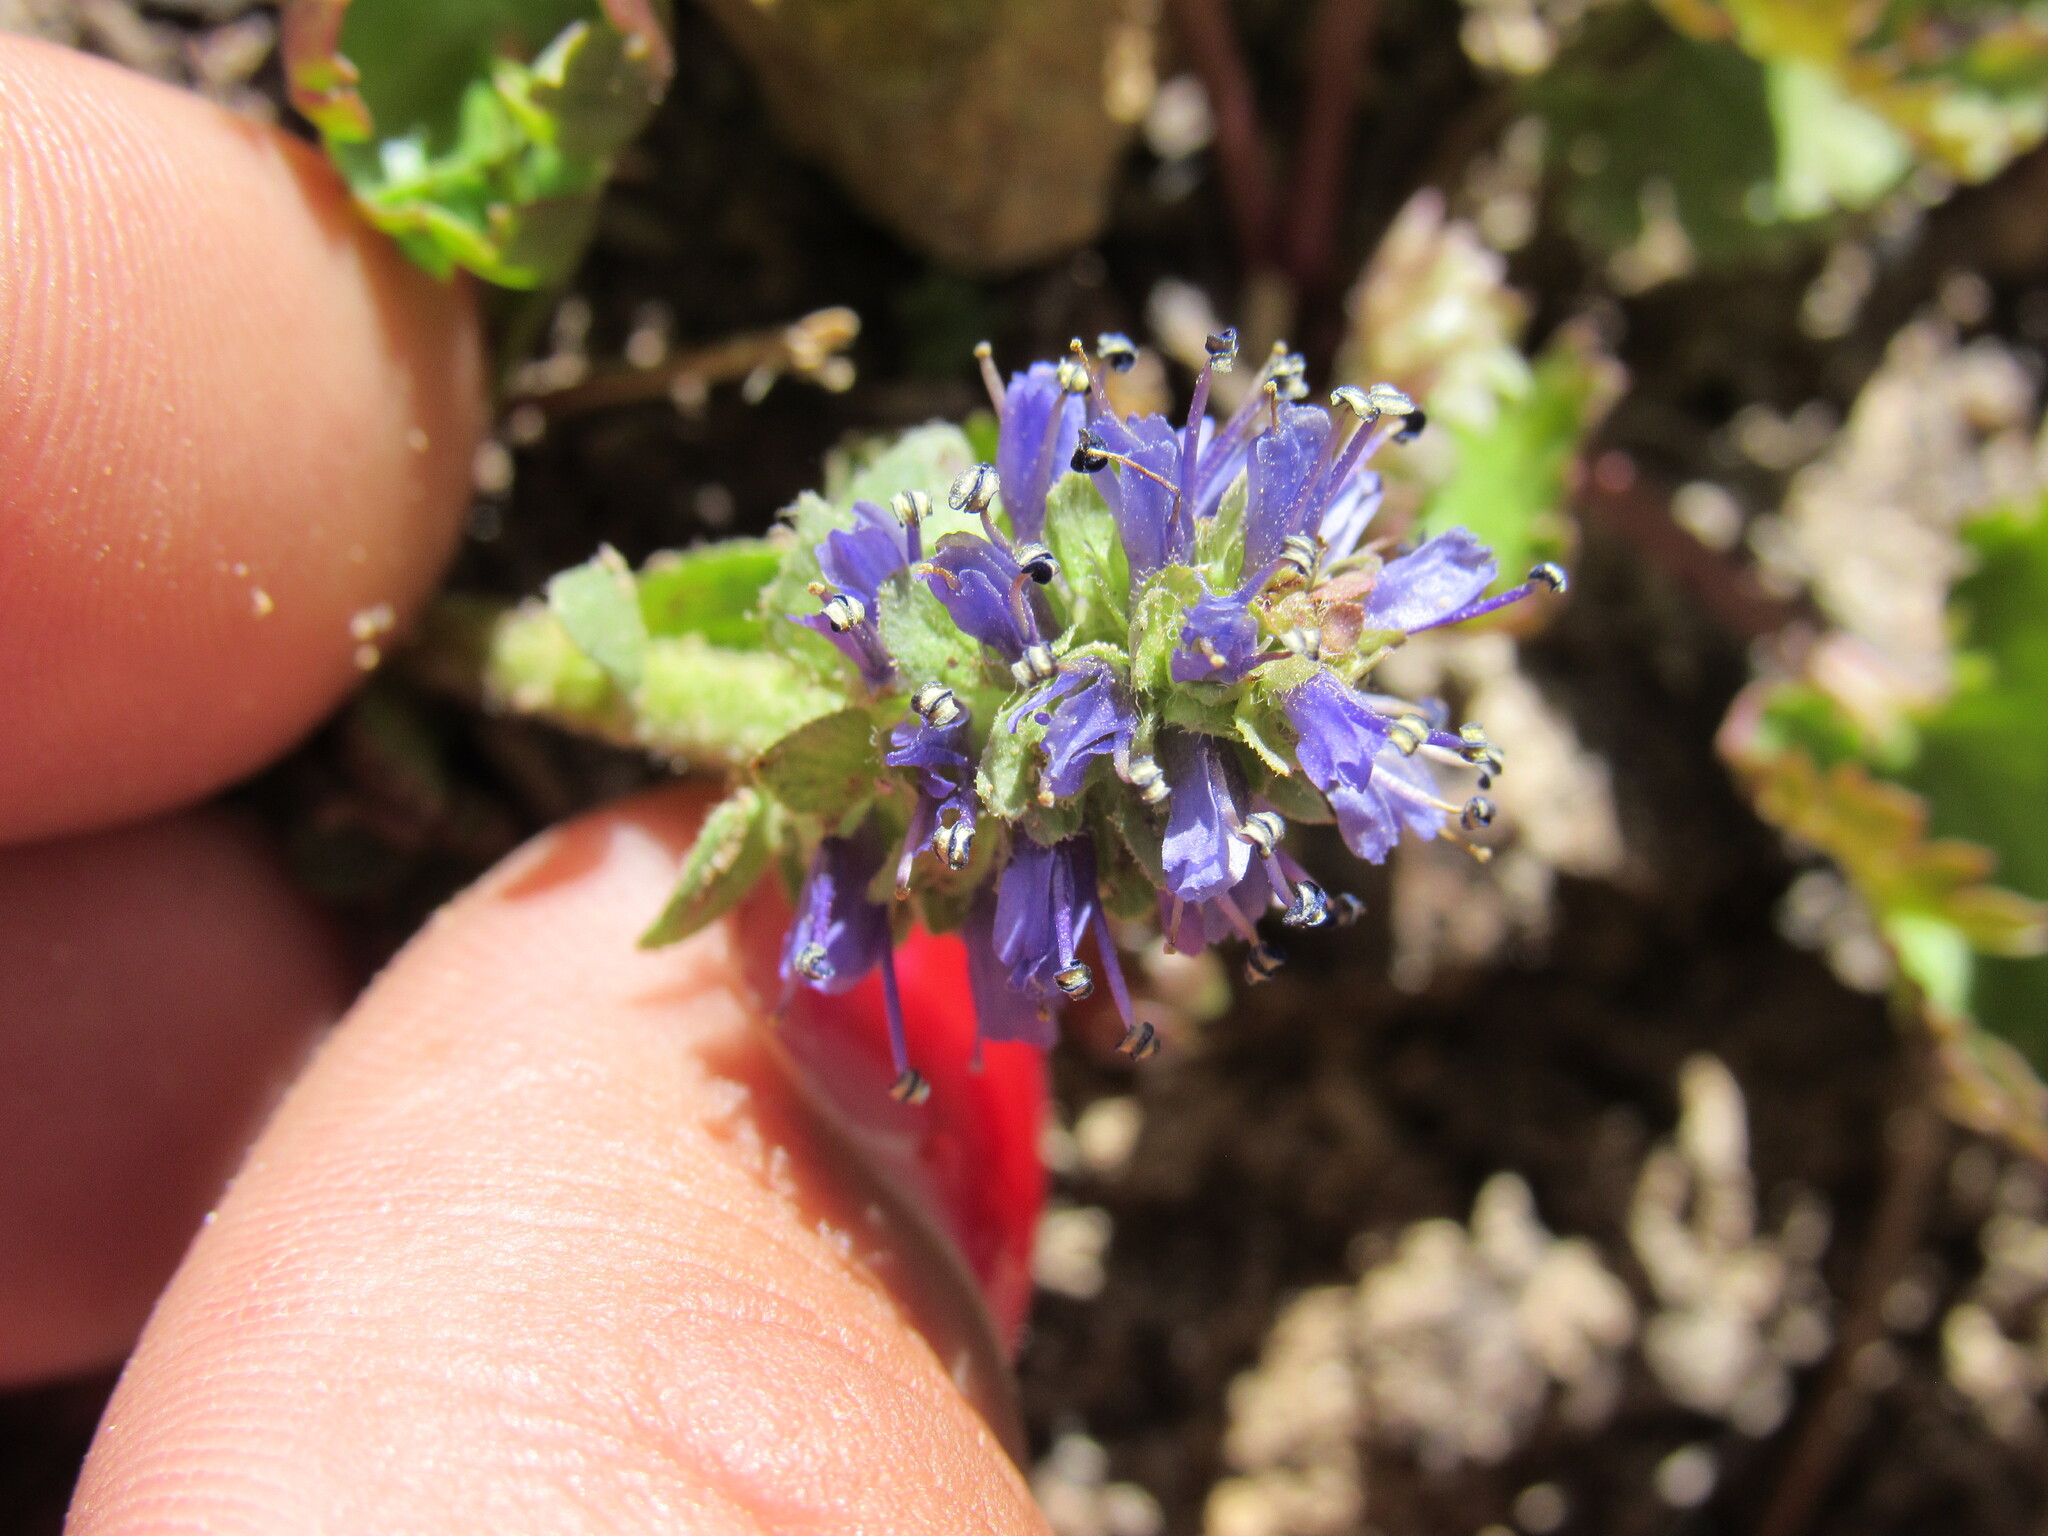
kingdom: Plantae
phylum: Tracheophyta
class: Magnoliopsida
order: Lamiales
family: Plantaginaceae
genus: Synthyris
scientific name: Synthyris laciniata
